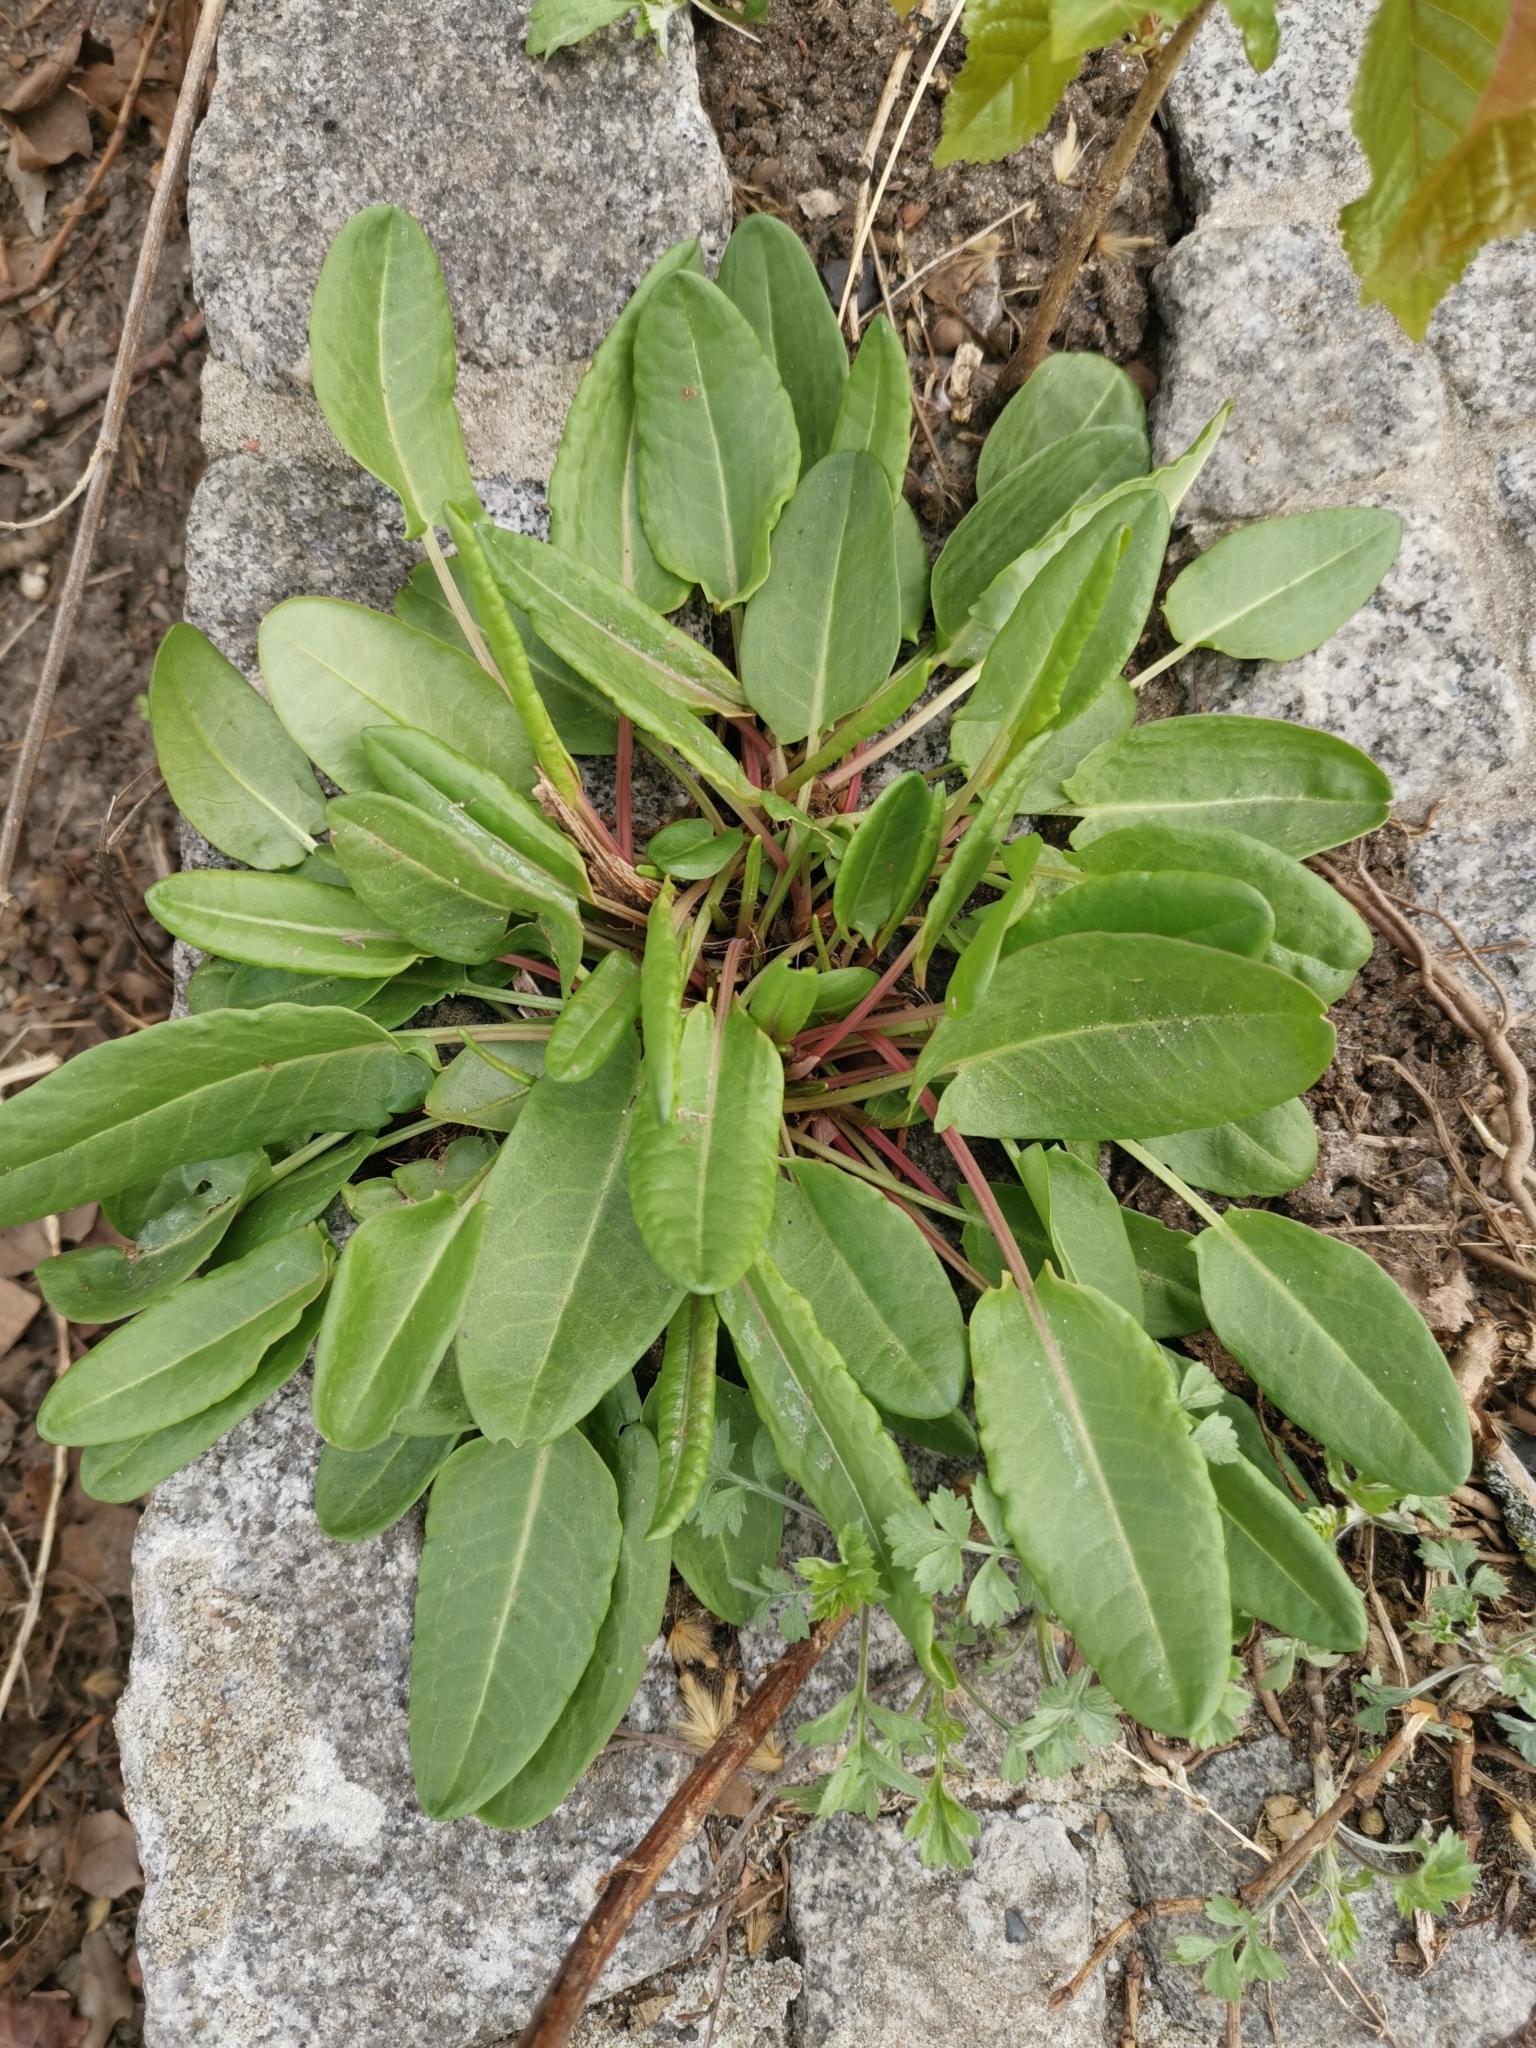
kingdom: Plantae
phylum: Tracheophyta
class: Magnoliopsida
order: Caryophyllales
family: Polygonaceae
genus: Rumex
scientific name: Rumex acetosa
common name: Garden sorrel
